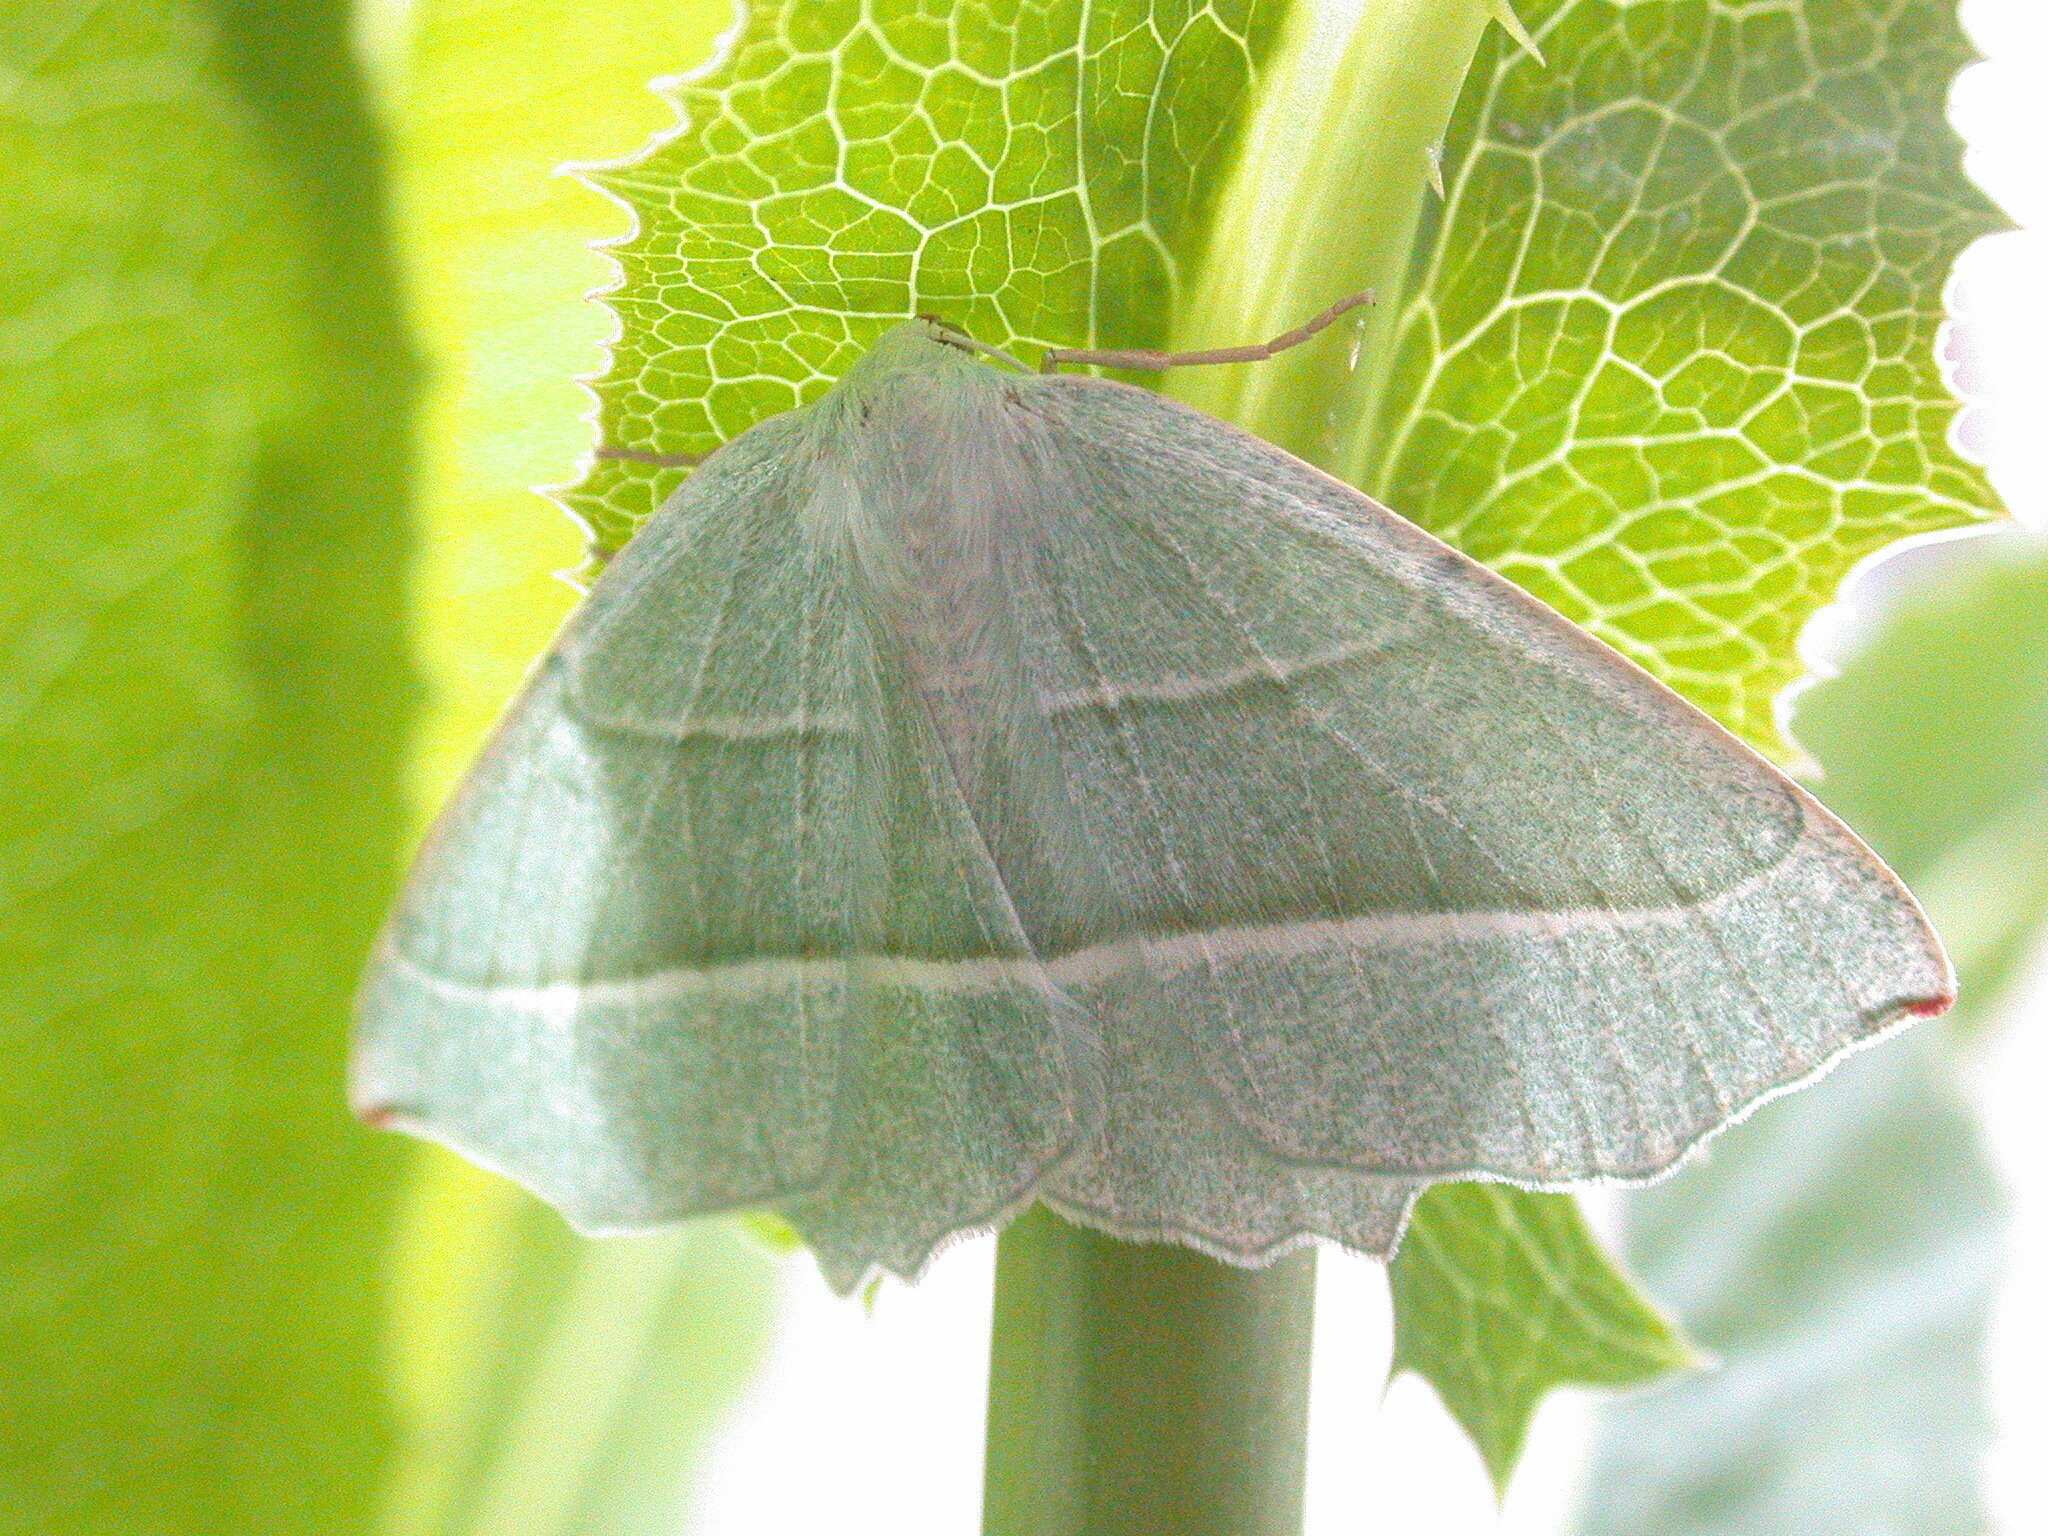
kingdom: Animalia
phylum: Arthropoda
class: Insecta
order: Lepidoptera
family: Geometridae
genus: Campaea
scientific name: Campaea margaritaria
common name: Light emerald
